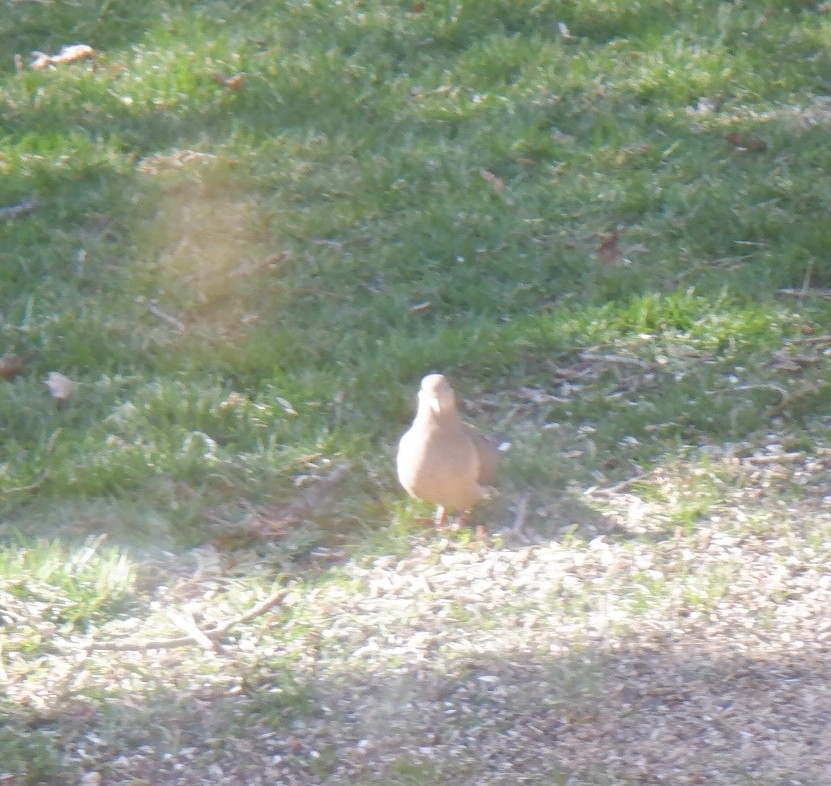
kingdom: Animalia
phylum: Chordata
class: Aves
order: Columbiformes
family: Columbidae
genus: Zenaida
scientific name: Zenaida macroura
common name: Mourning dove
